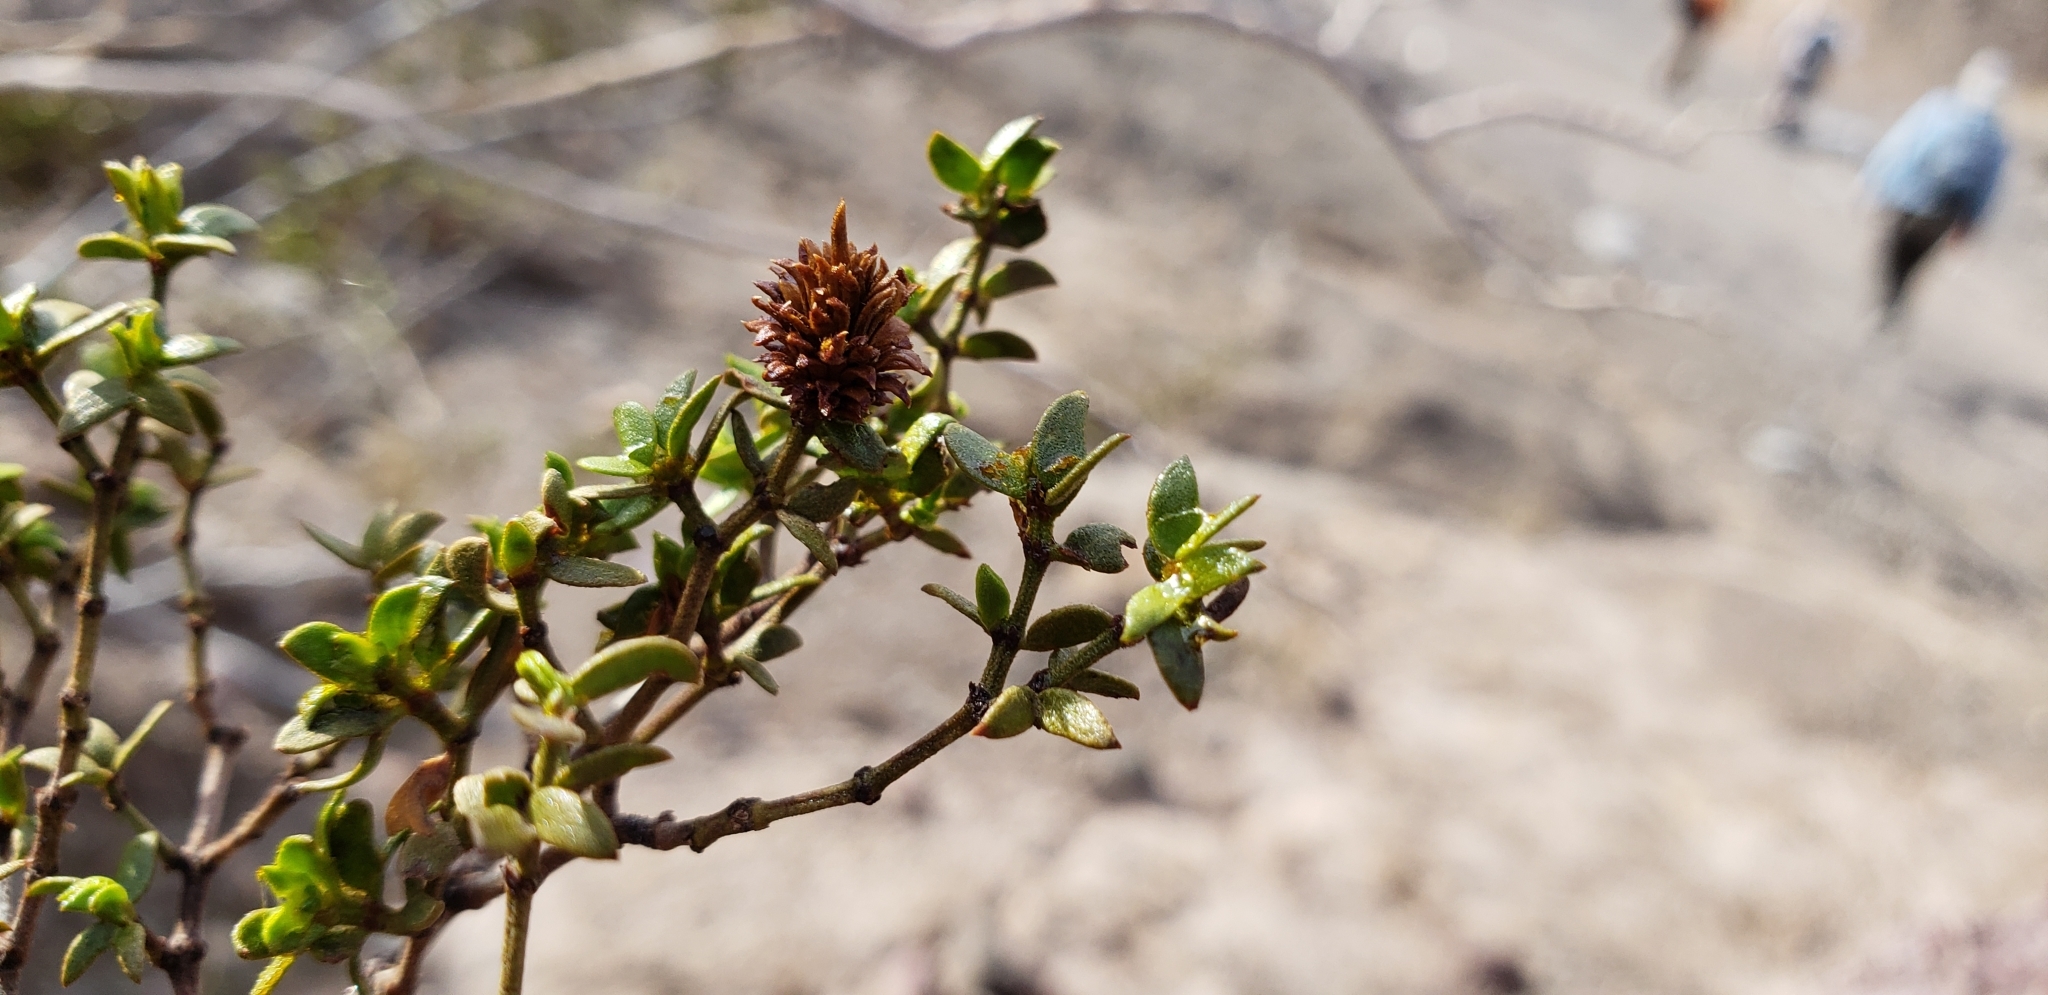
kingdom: Plantae
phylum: Tracheophyta
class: Magnoliopsida
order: Zygophyllales
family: Zygophyllaceae
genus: Larrea
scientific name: Larrea tridentata
